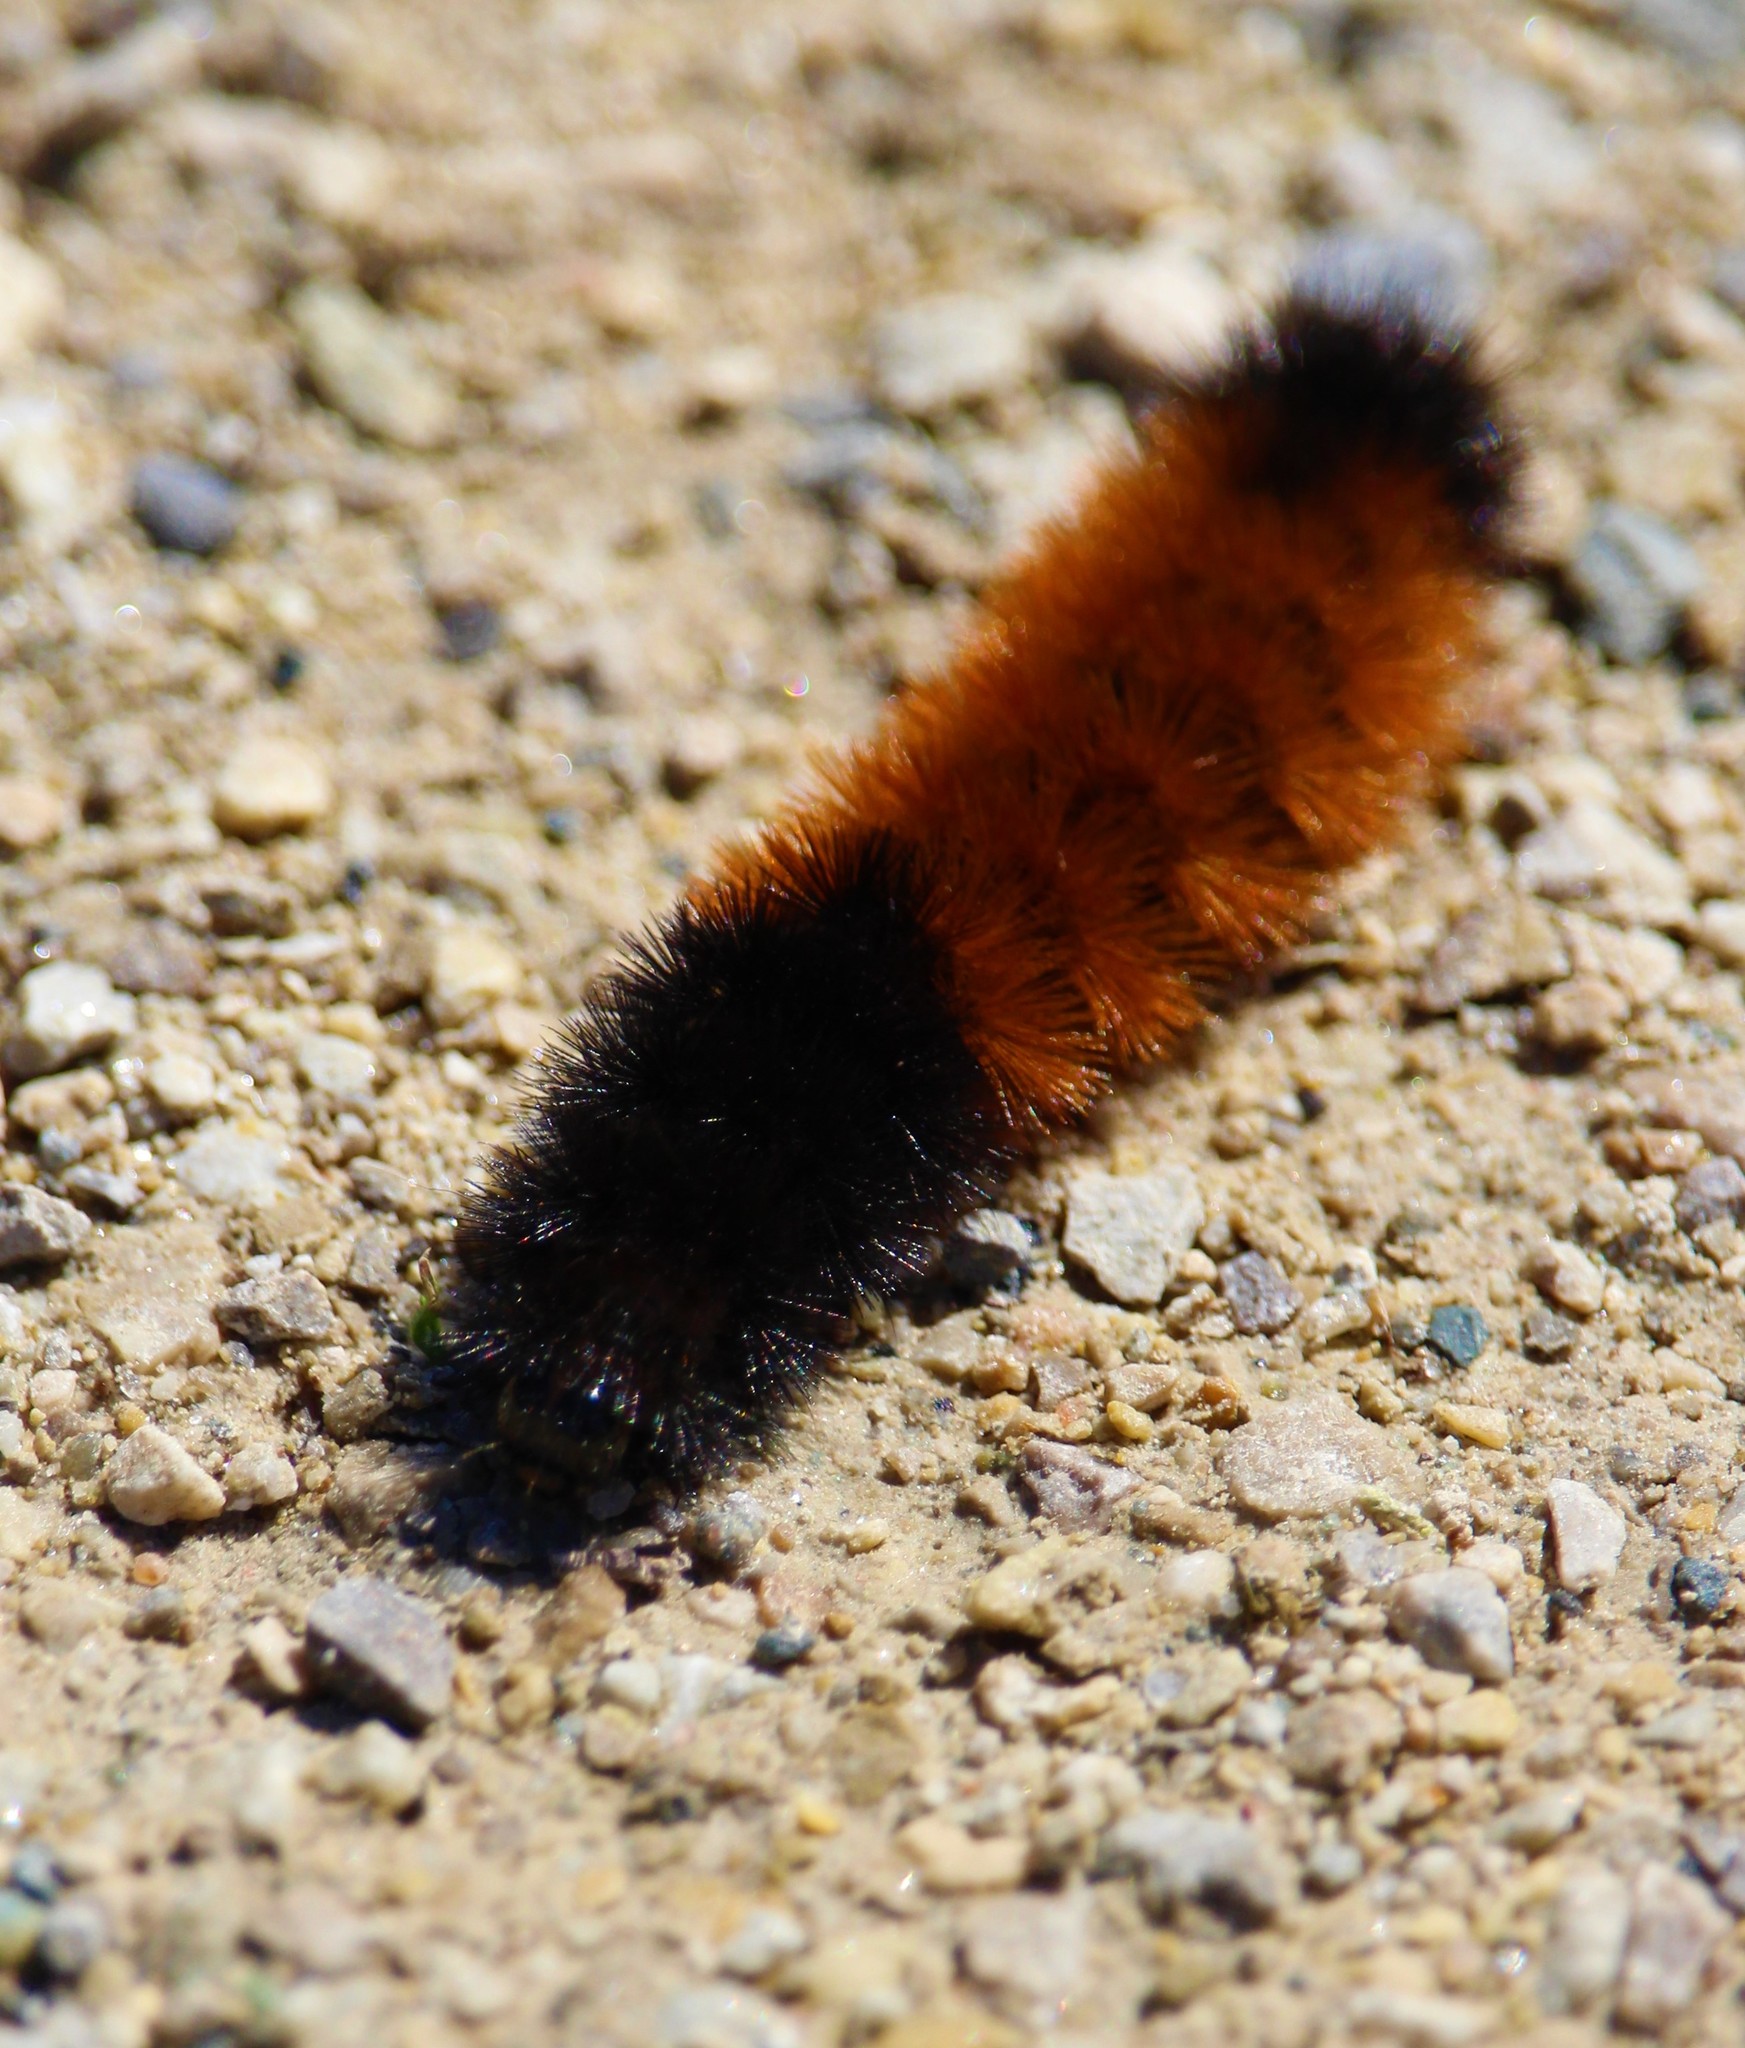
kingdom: Animalia
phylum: Arthropoda
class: Insecta
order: Lepidoptera
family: Erebidae
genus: Pyrrharctia
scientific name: Pyrrharctia isabella
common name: Isabella tiger moth
